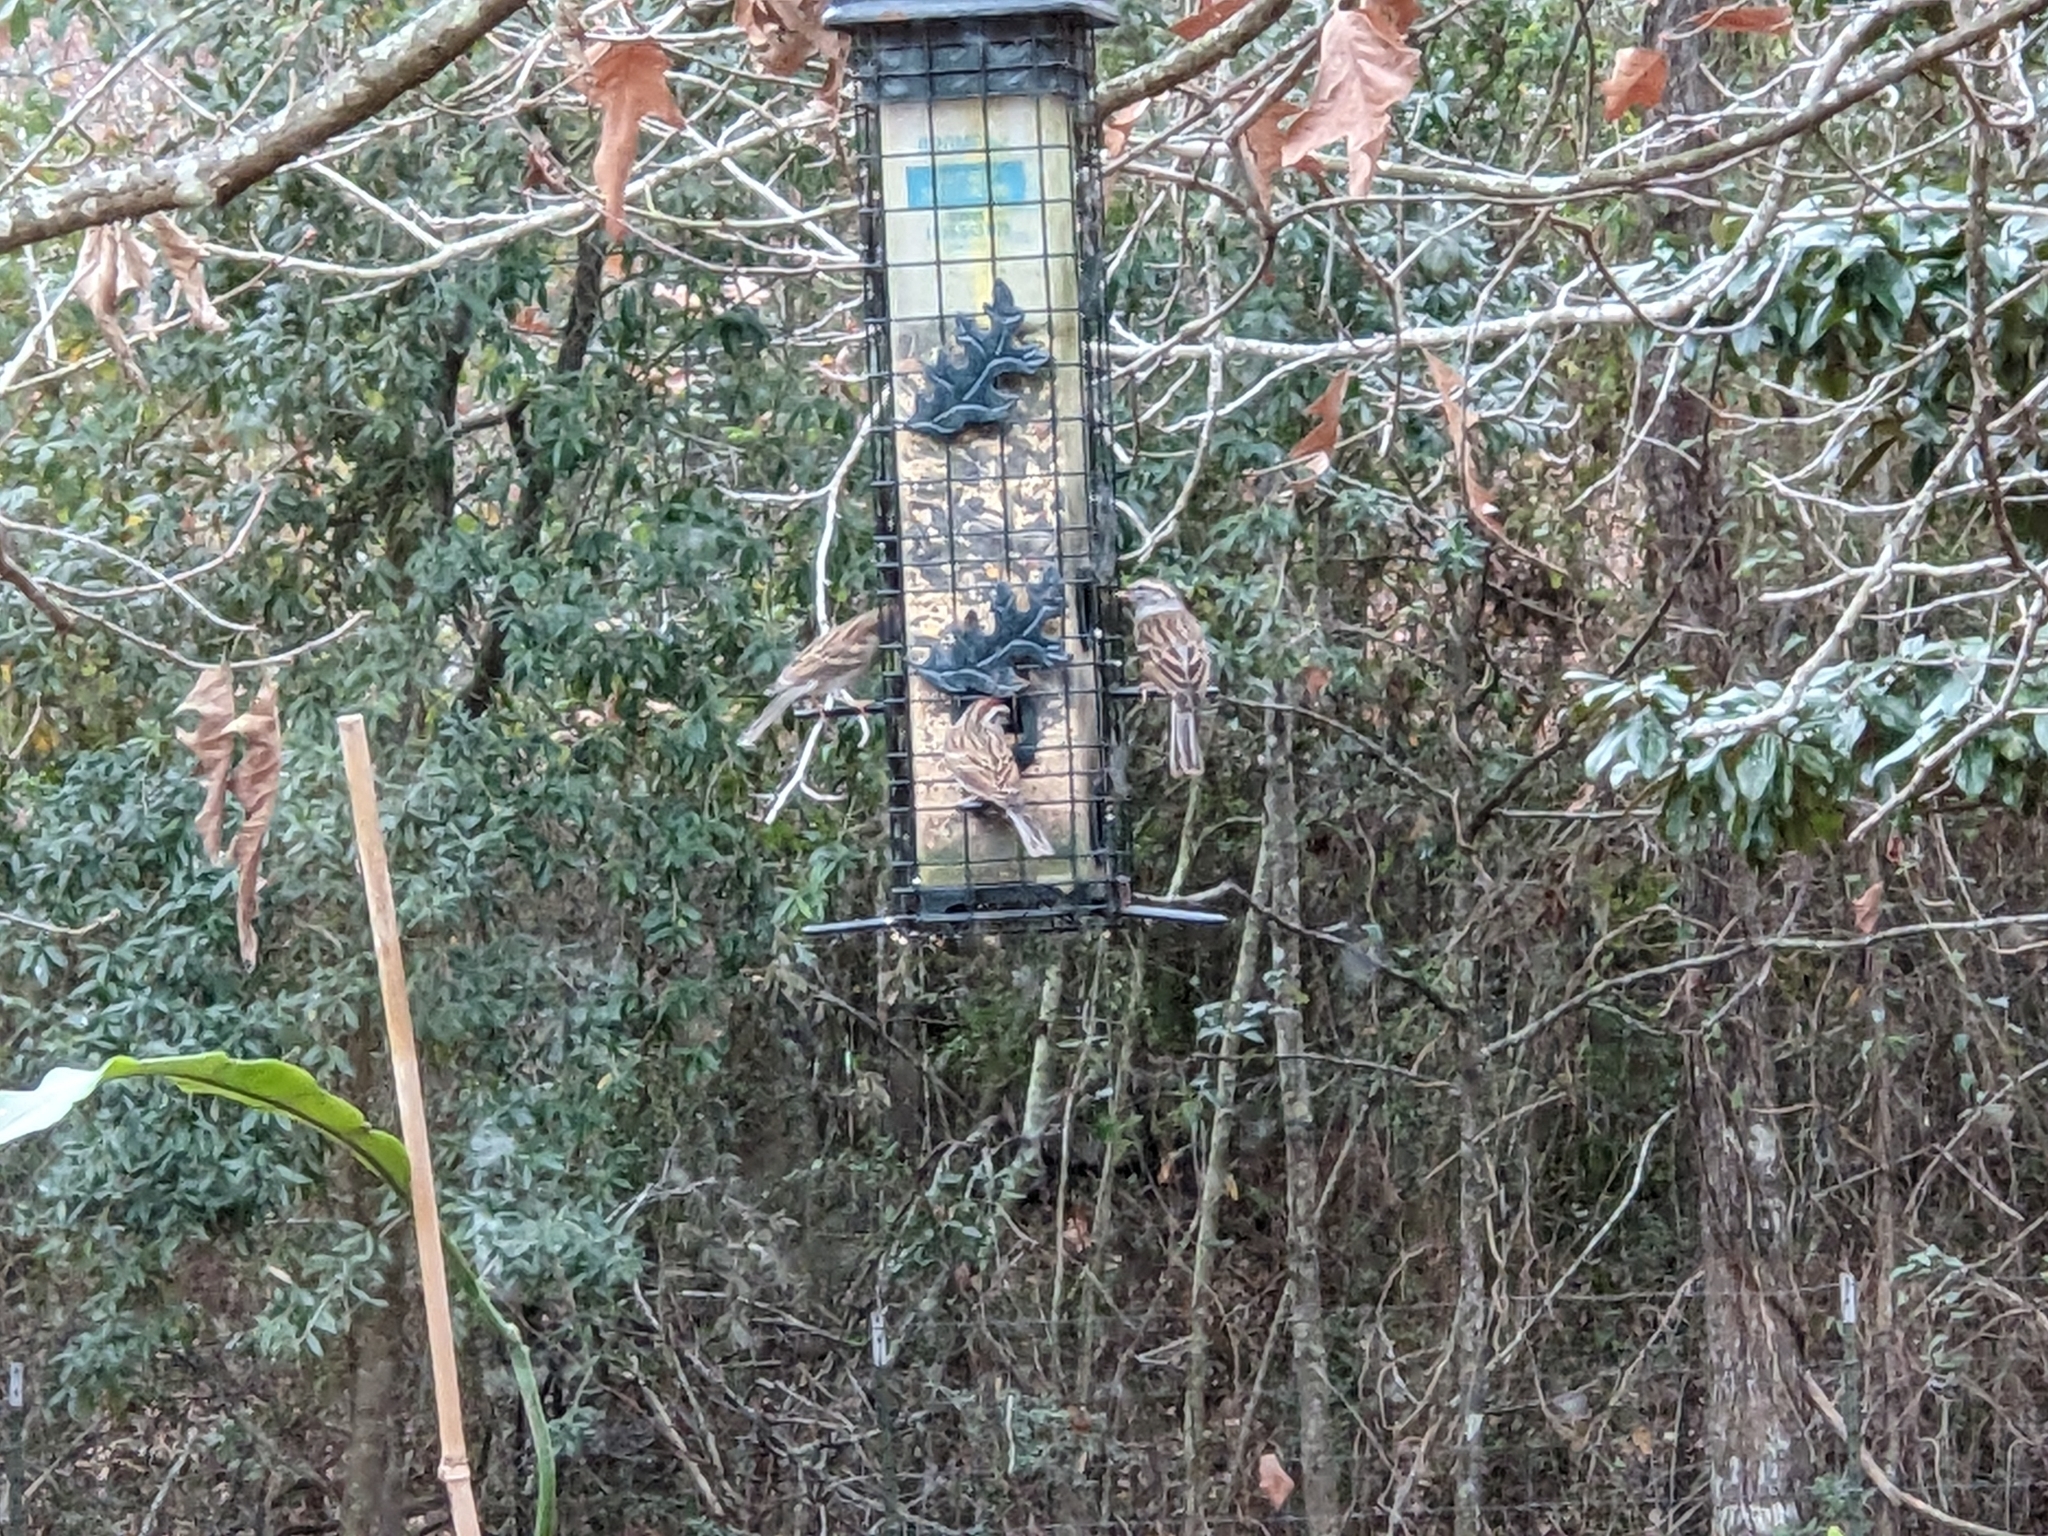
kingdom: Animalia
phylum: Chordata
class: Aves
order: Passeriformes
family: Passerellidae
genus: Spizella
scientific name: Spizella passerina
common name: Chipping sparrow
